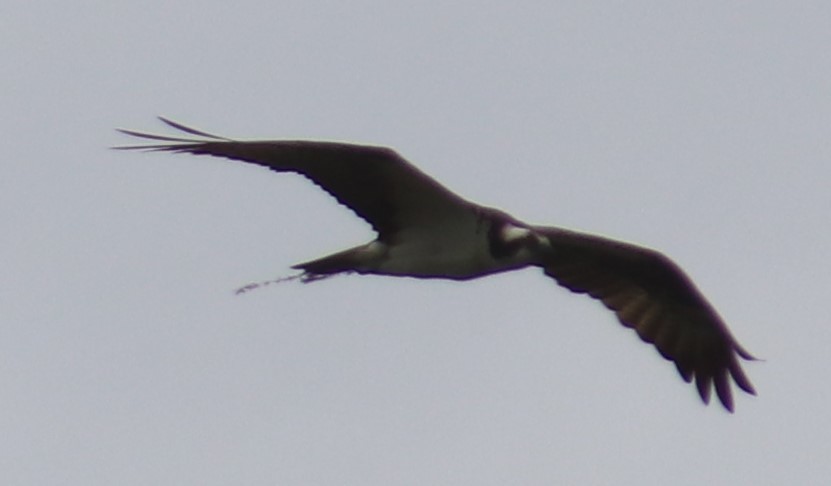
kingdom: Animalia
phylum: Chordata
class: Aves
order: Accipitriformes
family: Pandionidae
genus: Pandion
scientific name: Pandion haliaetus
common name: Osprey
